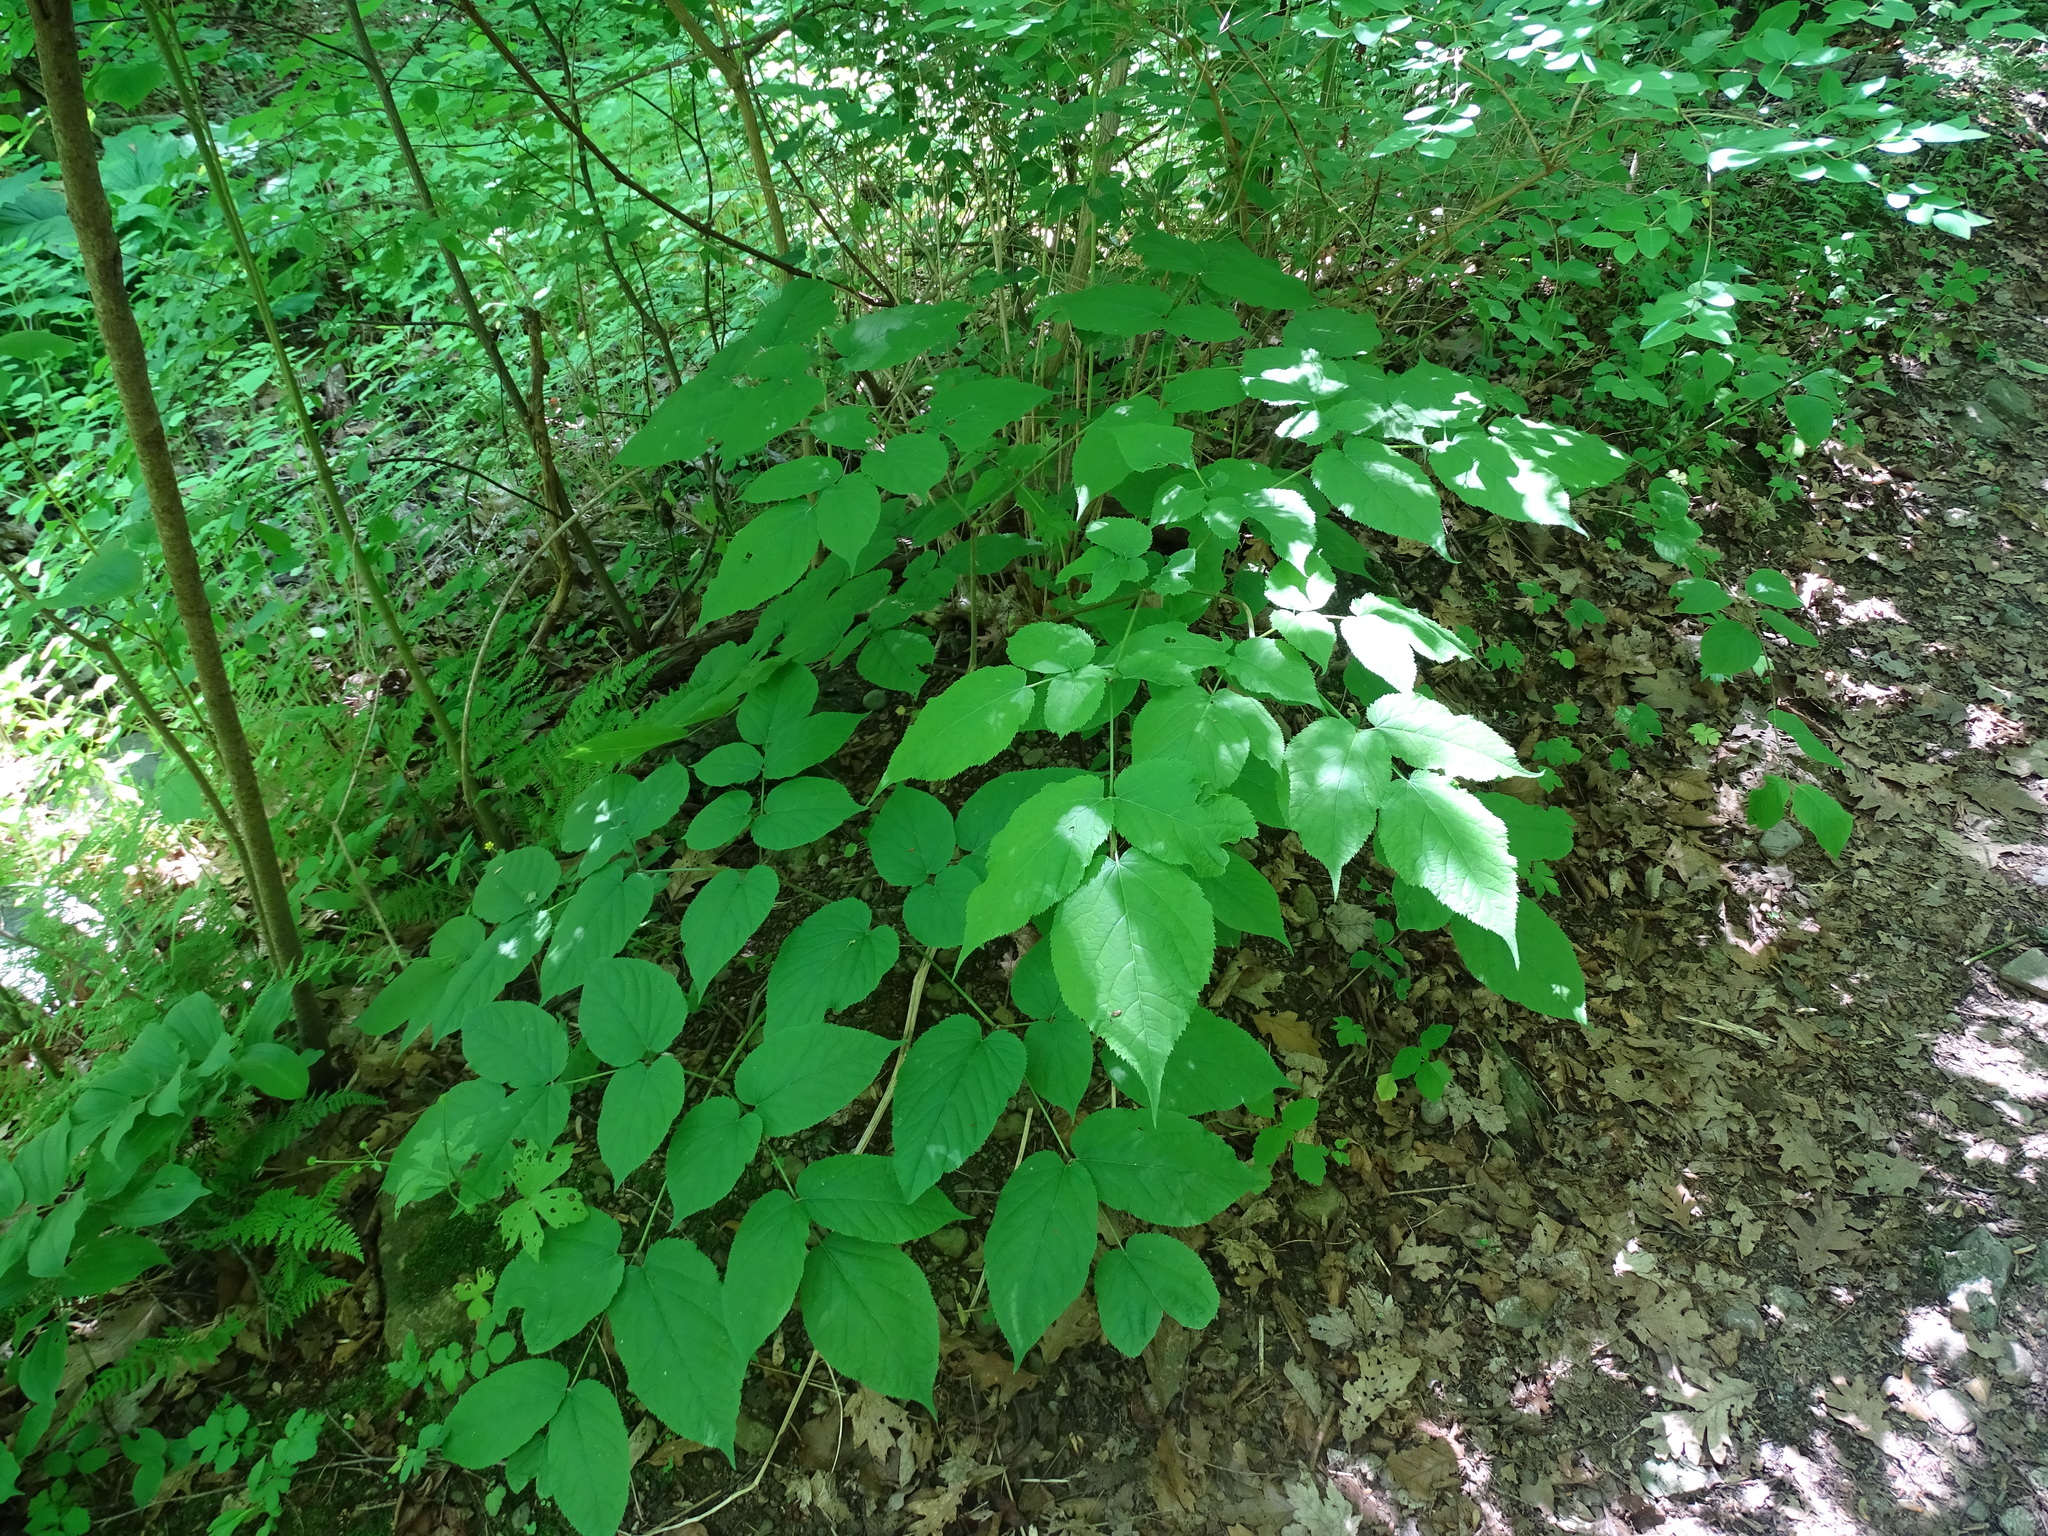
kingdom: Plantae
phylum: Tracheophyta
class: Magnoliopsida
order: Apiales
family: Araliaceae
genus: Aralia
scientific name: Aralia racemosa
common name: American-spikenard
